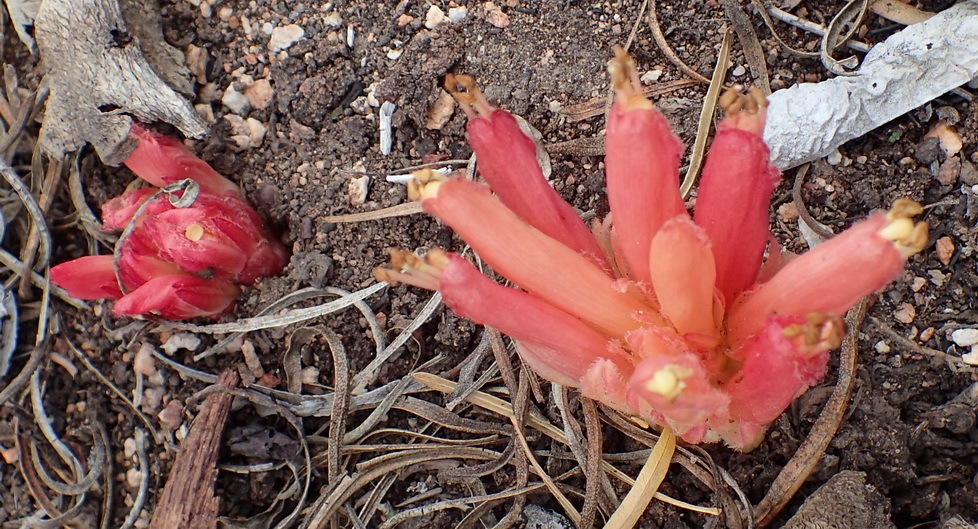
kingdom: Plantae
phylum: Tracheophyta
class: Magnoliopsida
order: Lamiales
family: Orobanchaceae
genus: Hyobanche
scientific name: Hyobanche glabrata
